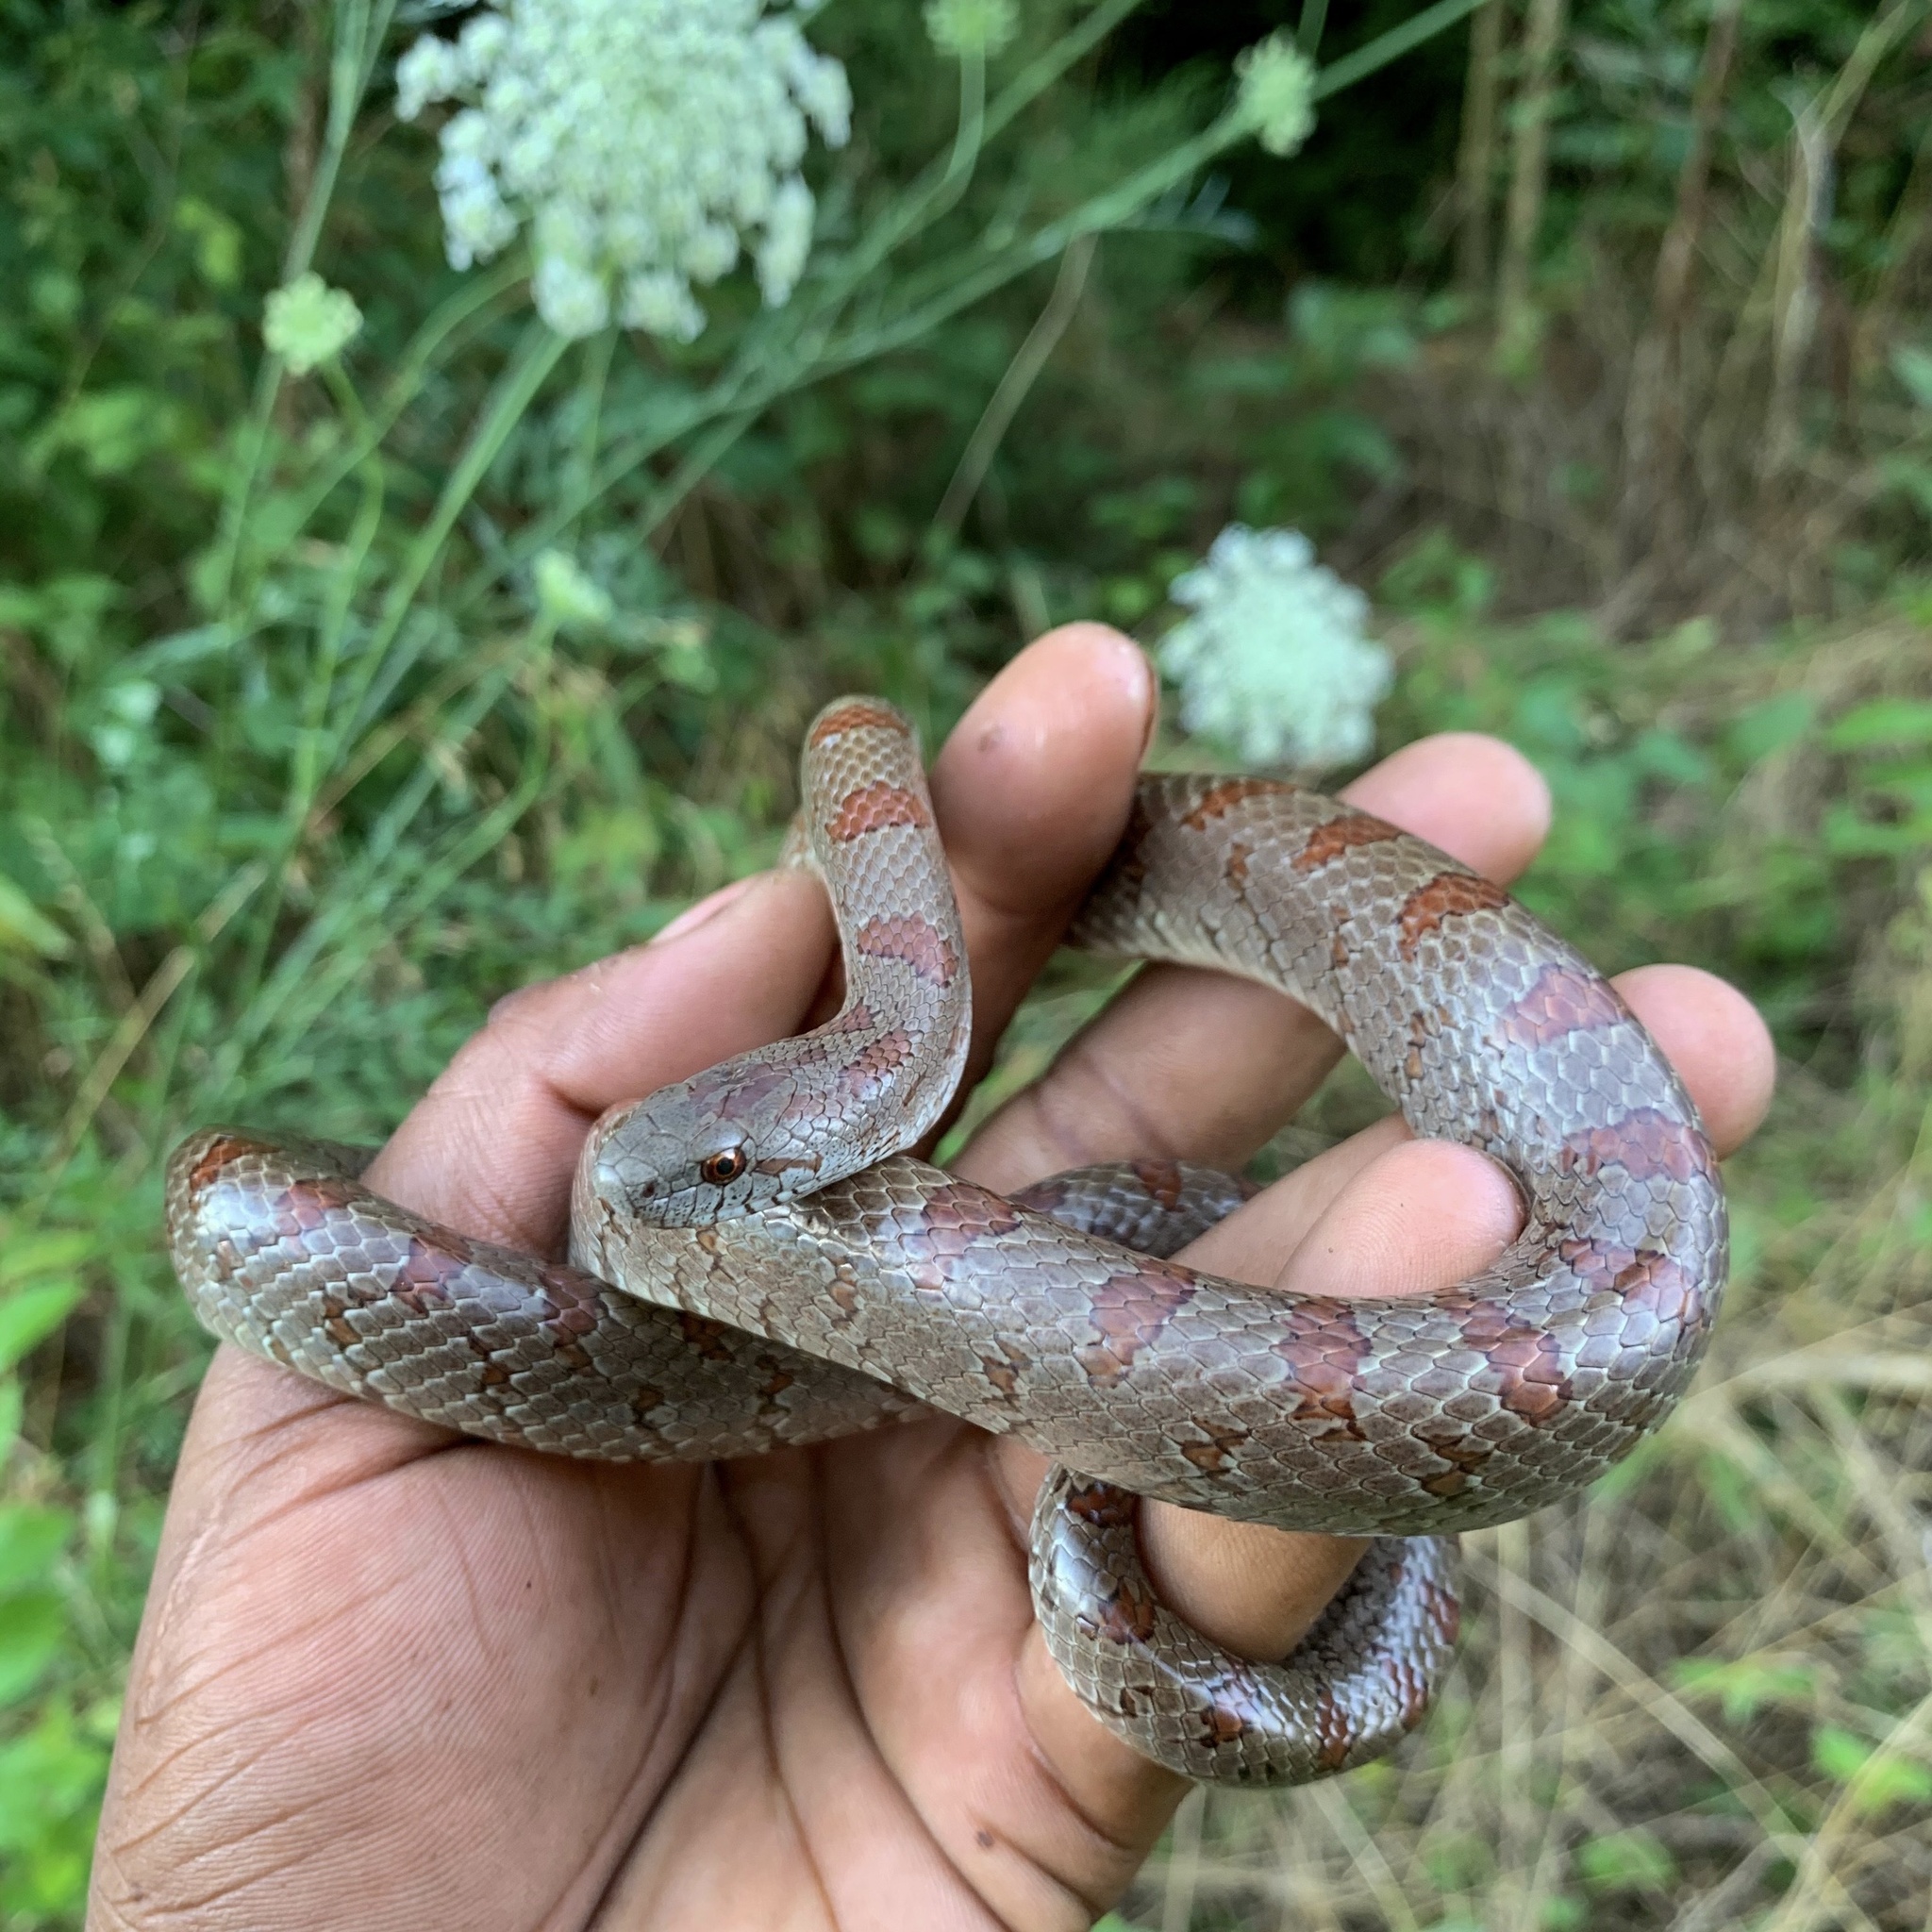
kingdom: Animalia
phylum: Chordata
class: Squamata
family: Colubridae
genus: Lampropeltis
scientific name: Lampropeltis rhombomaculata
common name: Mole kingsnake
